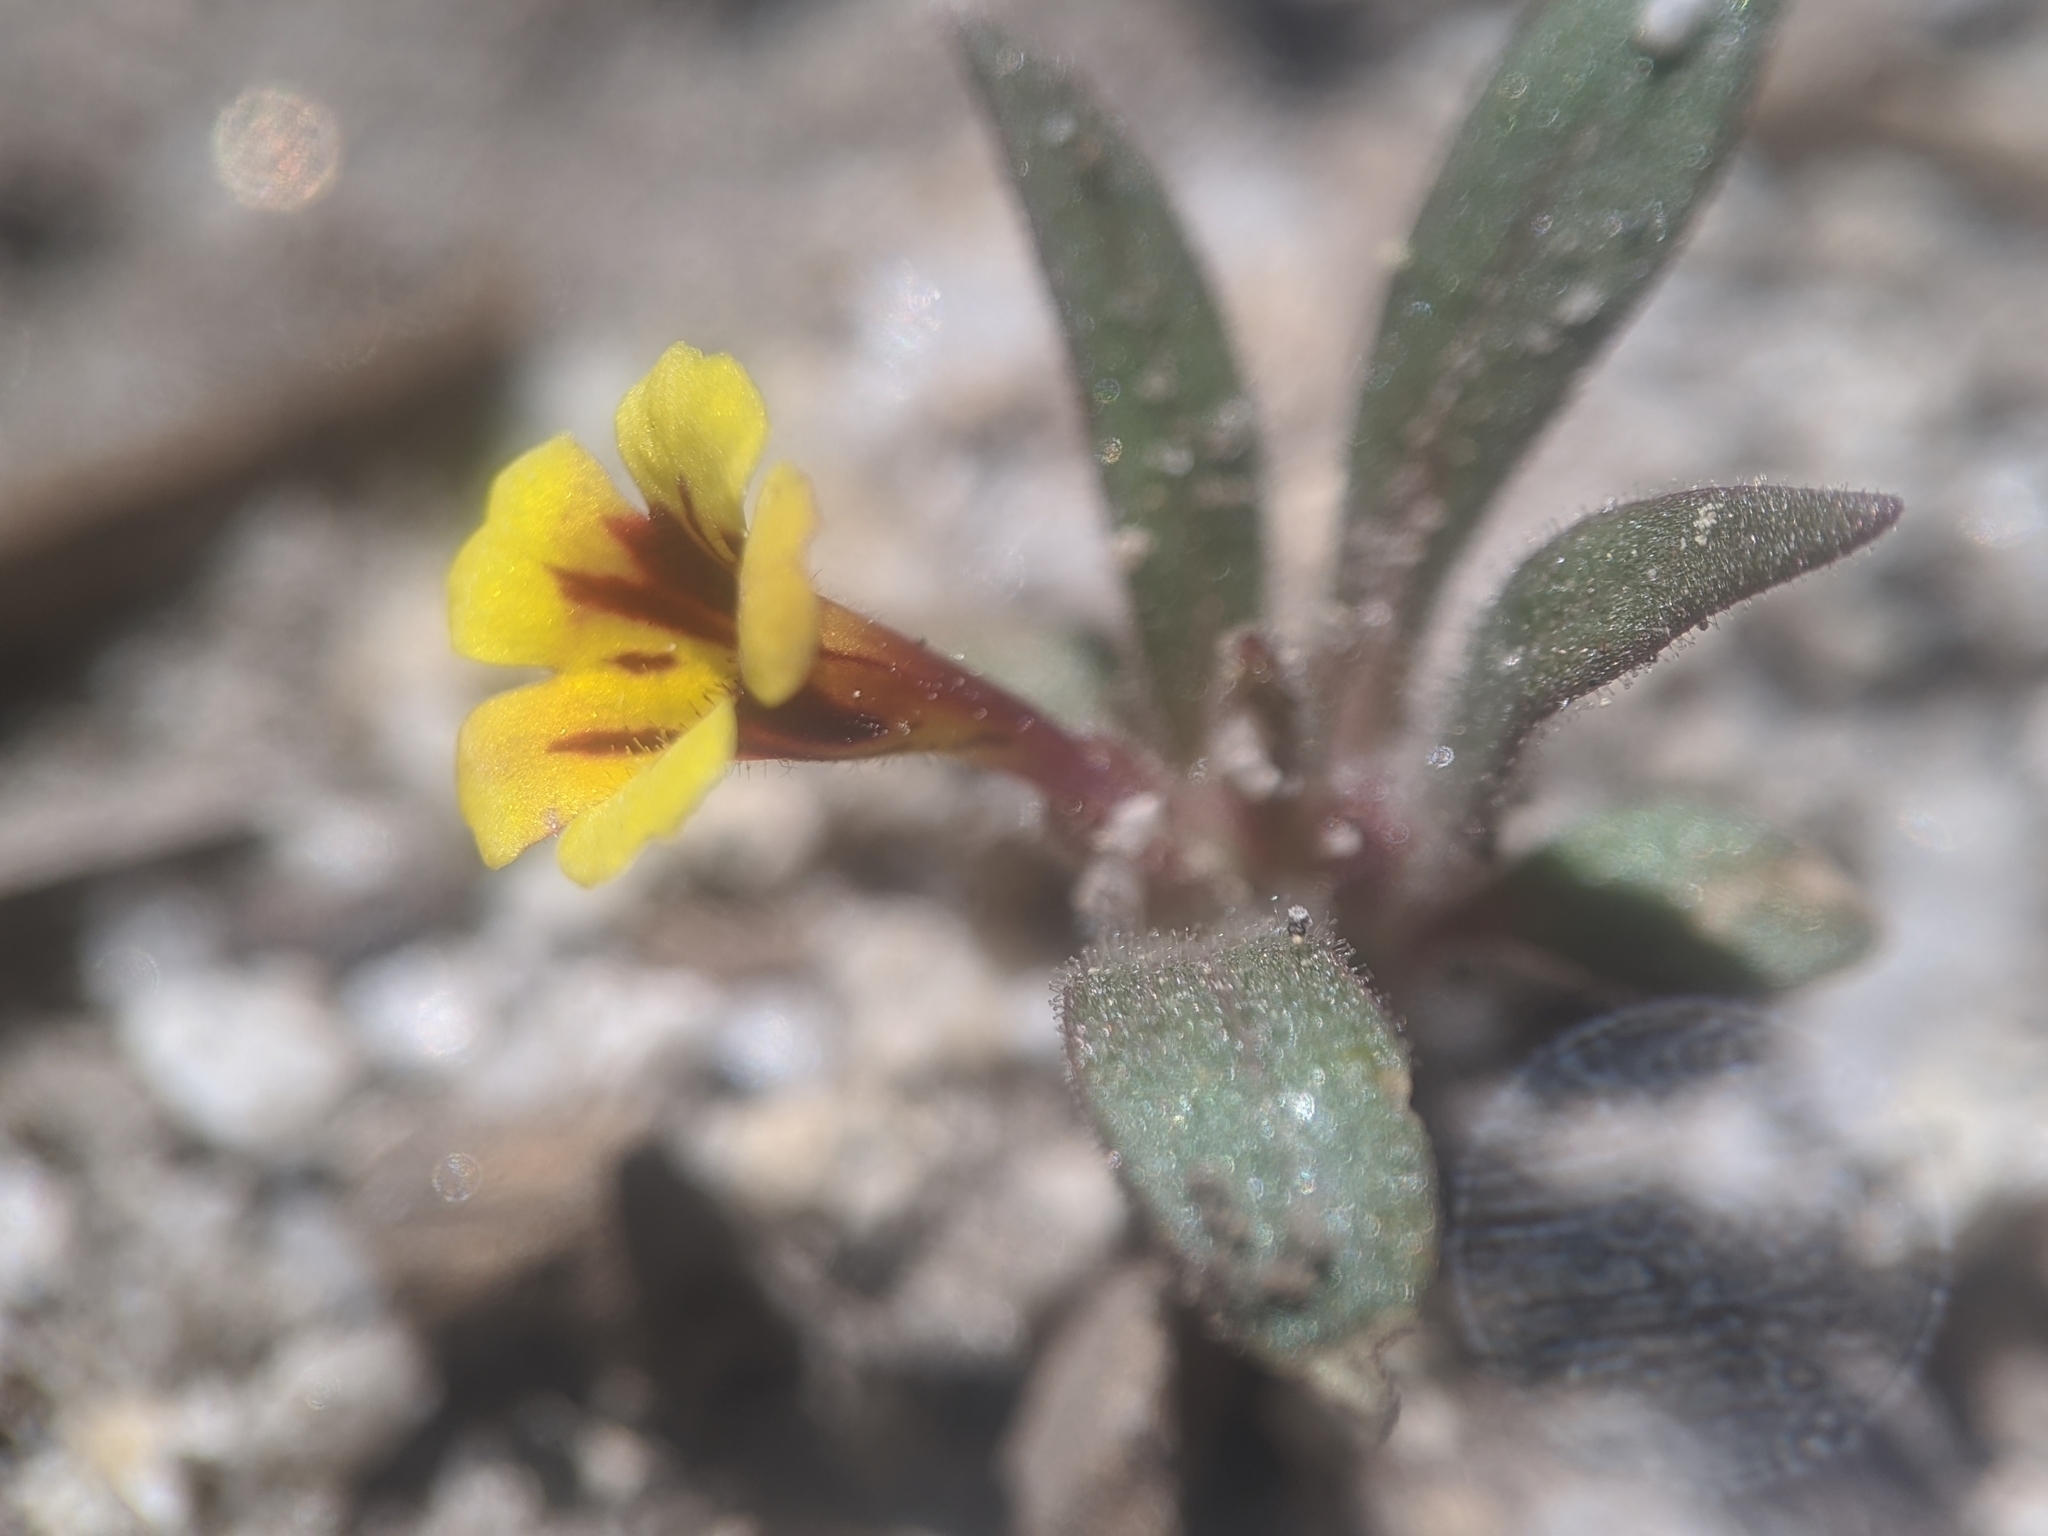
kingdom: Plantae
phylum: Tracheophyta
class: Magnoliopsida
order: Lamiales
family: Phrymaceae
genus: Diplacus
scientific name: Diplacus
